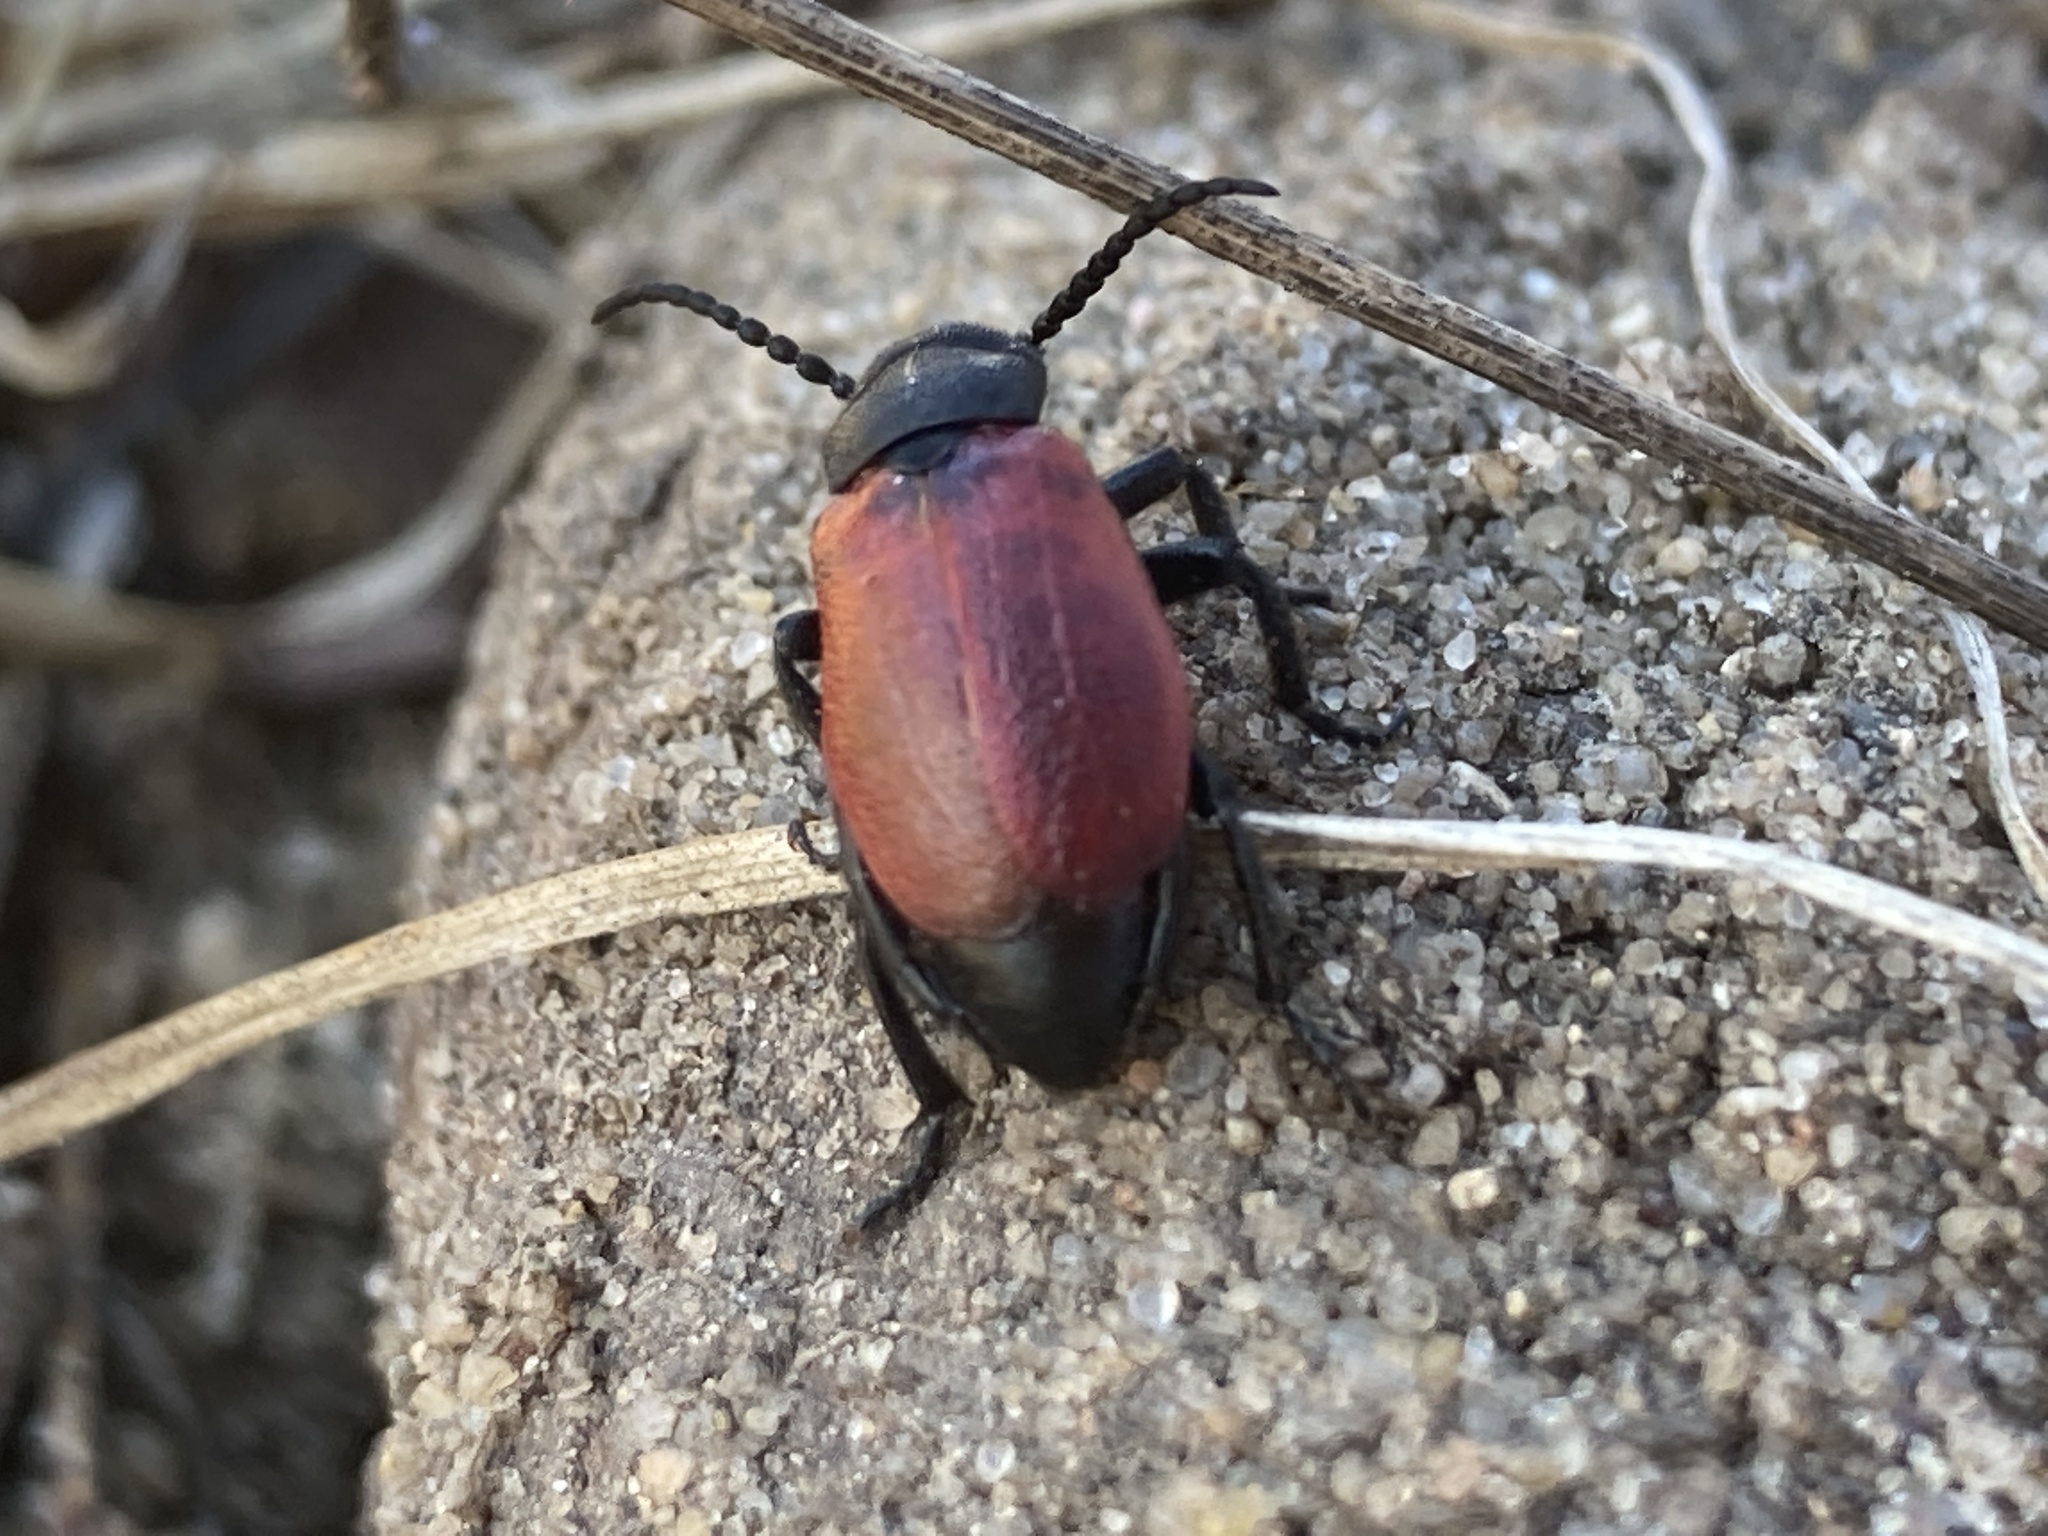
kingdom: Animalia
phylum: Arthropoda
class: Insecta
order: Coleoptera
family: Meloidae
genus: Tricrania
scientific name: Tricrania sanguinipennis
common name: Blood-winged blister beetle
